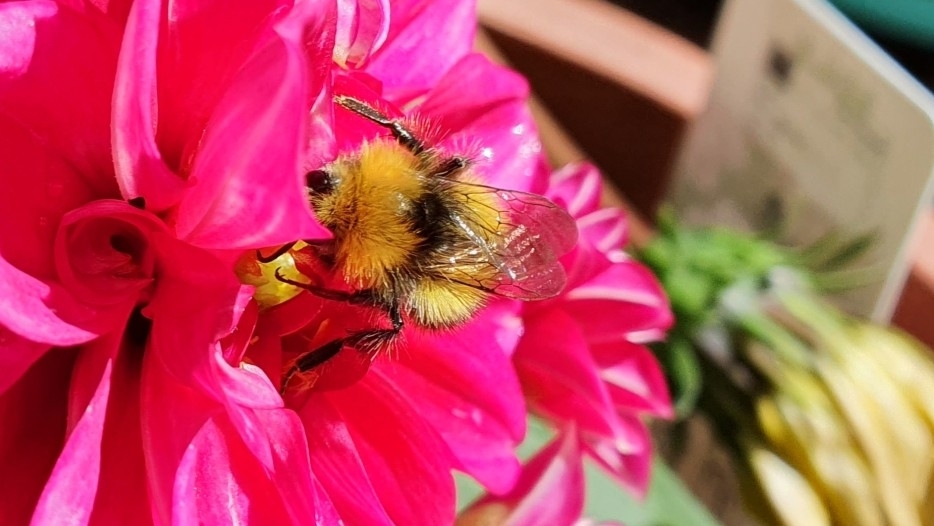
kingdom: Animalia
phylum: Arthropoda
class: Insecta
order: Hymenoptera
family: Apidae
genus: Bombus
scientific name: Bombus pratorum
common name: Early humble-bee
